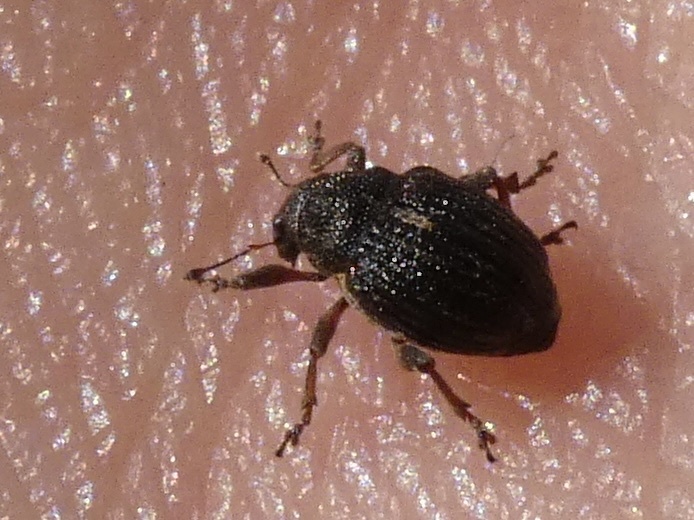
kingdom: Animalia
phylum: Arthropoda
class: Insecta
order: Coleoptera
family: Curculionidae
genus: Rhinoncus
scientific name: Rhinoncus leucostigma
